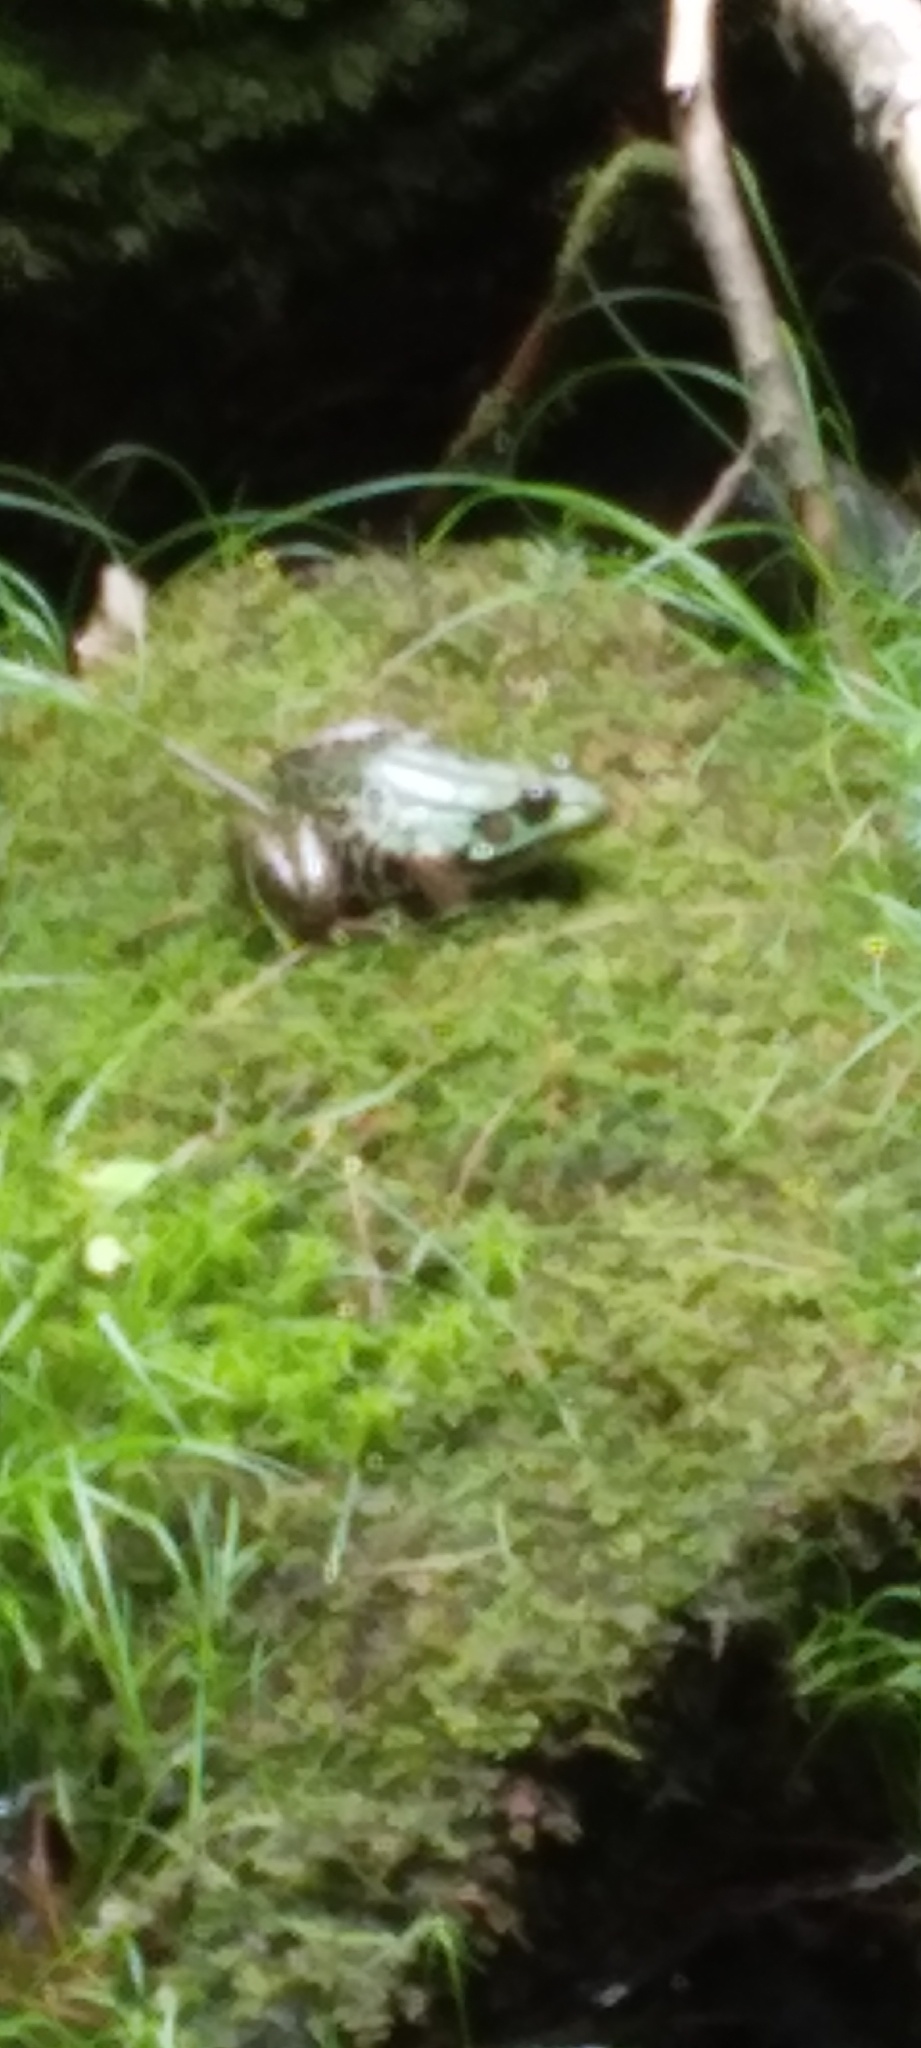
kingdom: Animalia
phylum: Chordata
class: Amphibia
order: Anura
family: Ranidae
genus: Lithobates
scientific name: Lithobates clamitans
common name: Green frog
